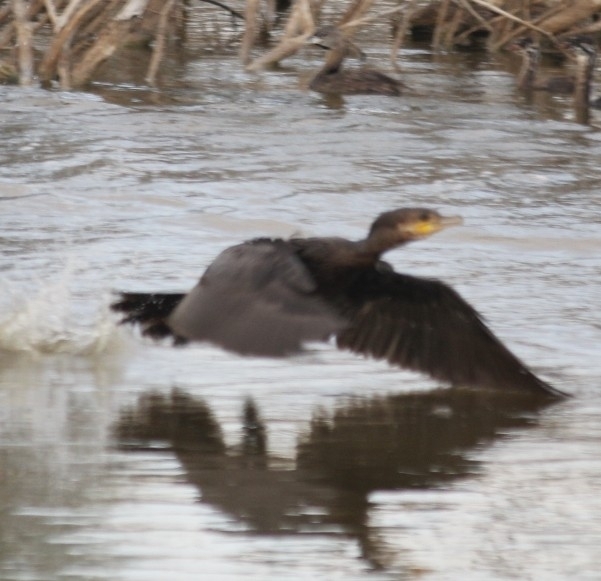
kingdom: Animalia
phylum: Chordata
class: Aves
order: Suliformes
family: Phalacrocoracidae
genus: Phalacrocorax
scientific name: Phalacrocorax auritus
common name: Double-crested cormorant
